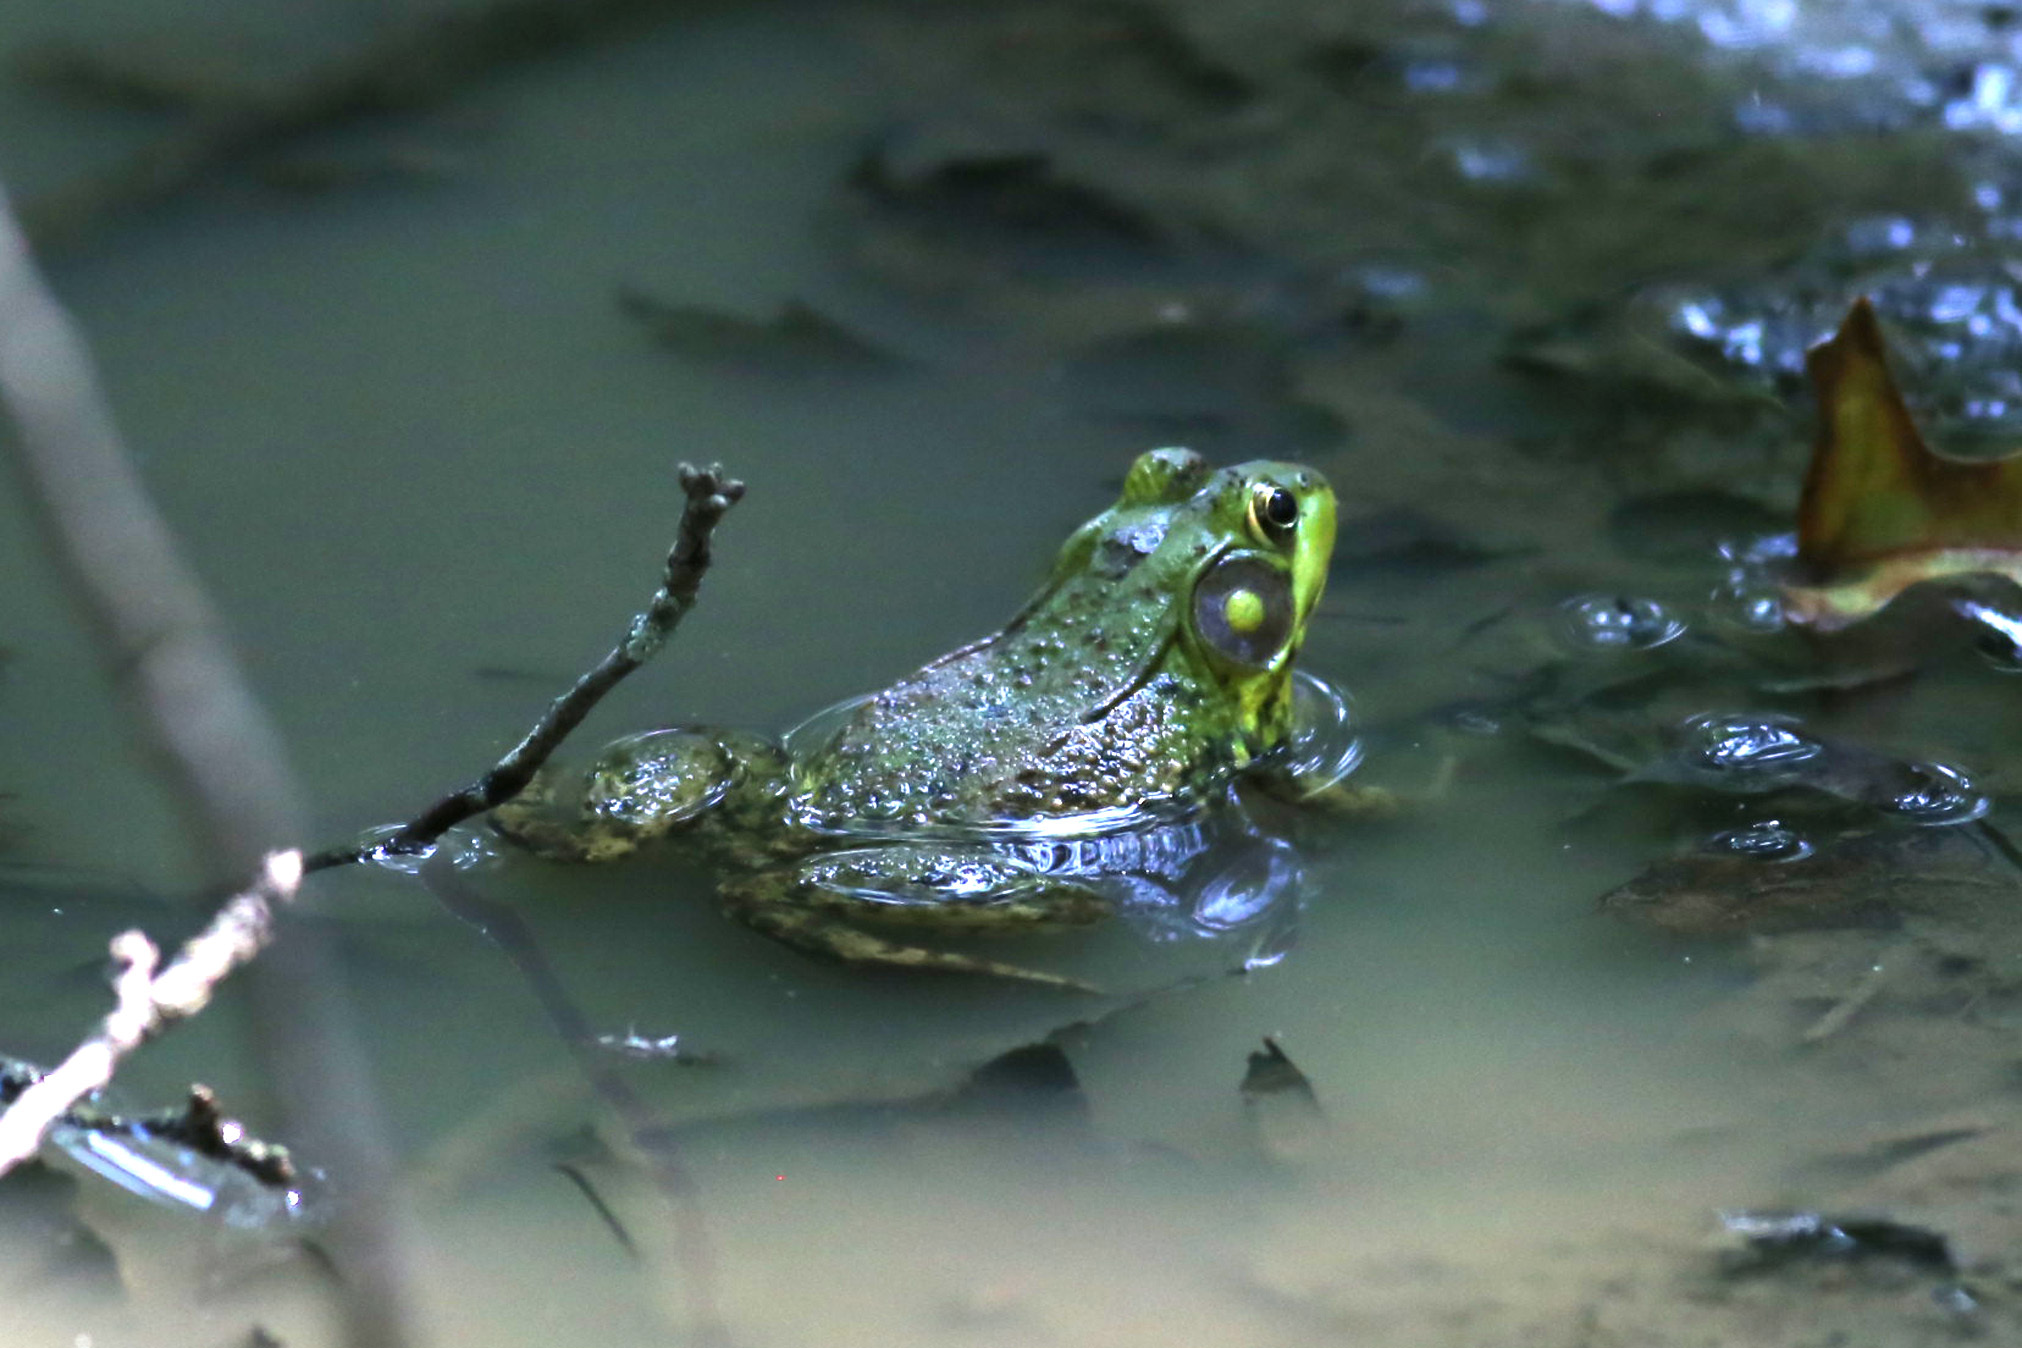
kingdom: Animalia
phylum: Chordata
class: Amphibia
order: Anura
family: Ranidae
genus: Lithobates
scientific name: Lithobates clamitans
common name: Green frog
